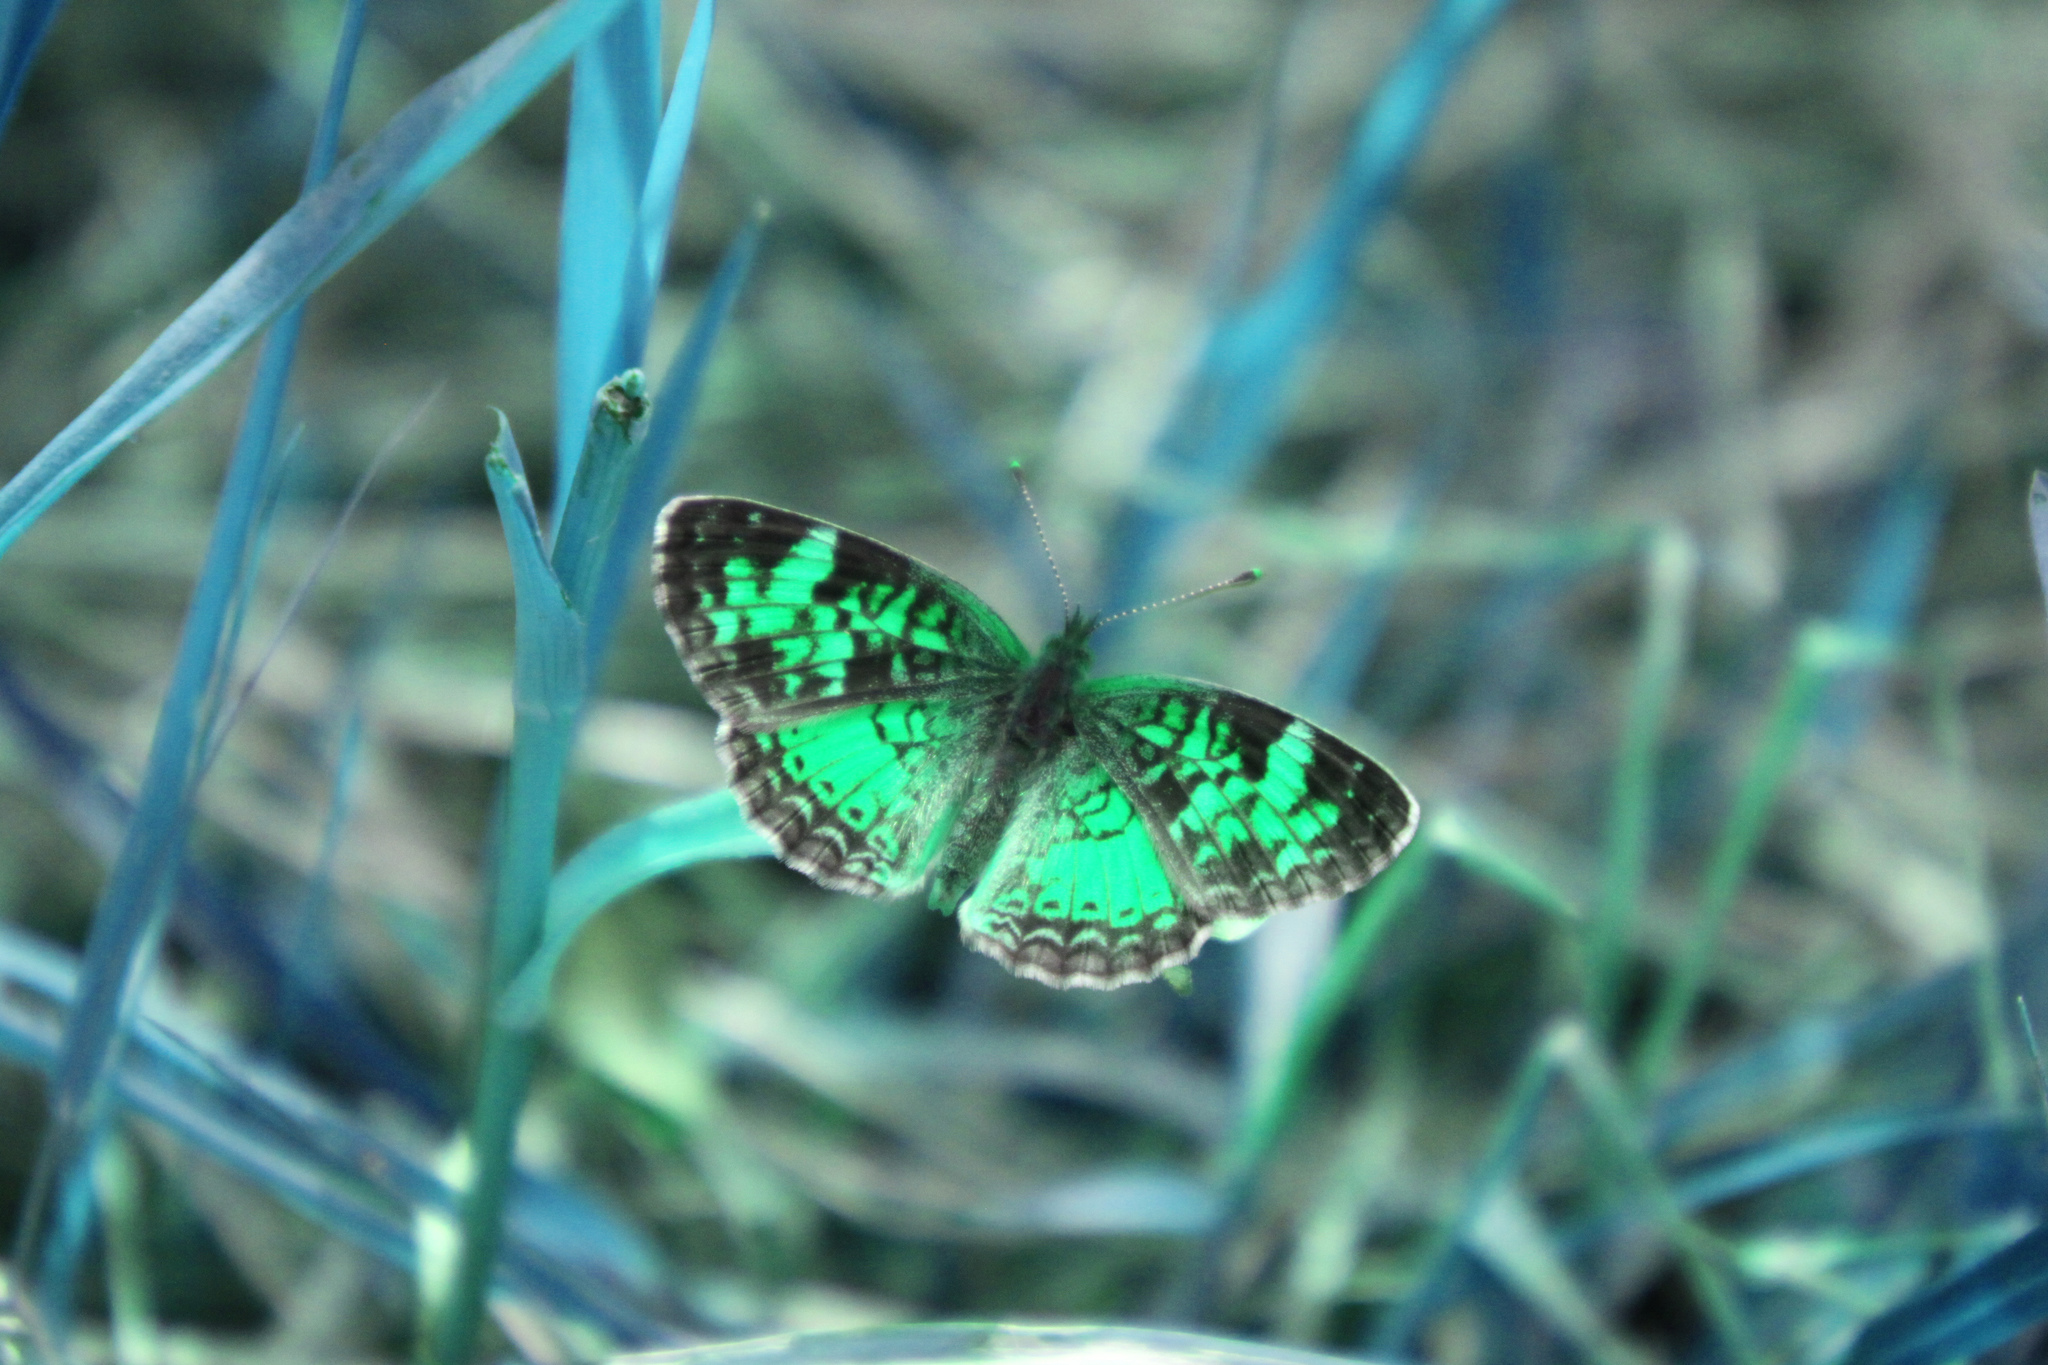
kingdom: Animalia
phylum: Arthropoda
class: Insecta
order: Lepidoptera
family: Nymphalidae
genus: Phyciodes
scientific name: Phyciodes tharos
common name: Pearl crescent
